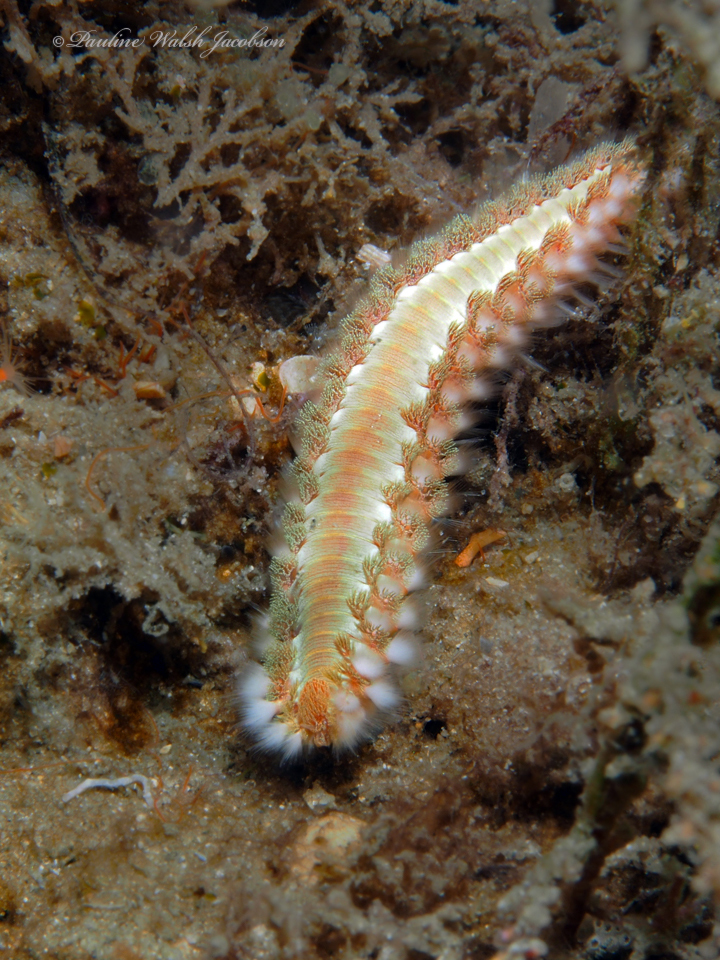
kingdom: Animalia
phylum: Annelida
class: Polychaeta
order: Amphinomida
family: Amphinomidae
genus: Hermodice
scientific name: Hermodice carunculata
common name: Bearded fireworm
